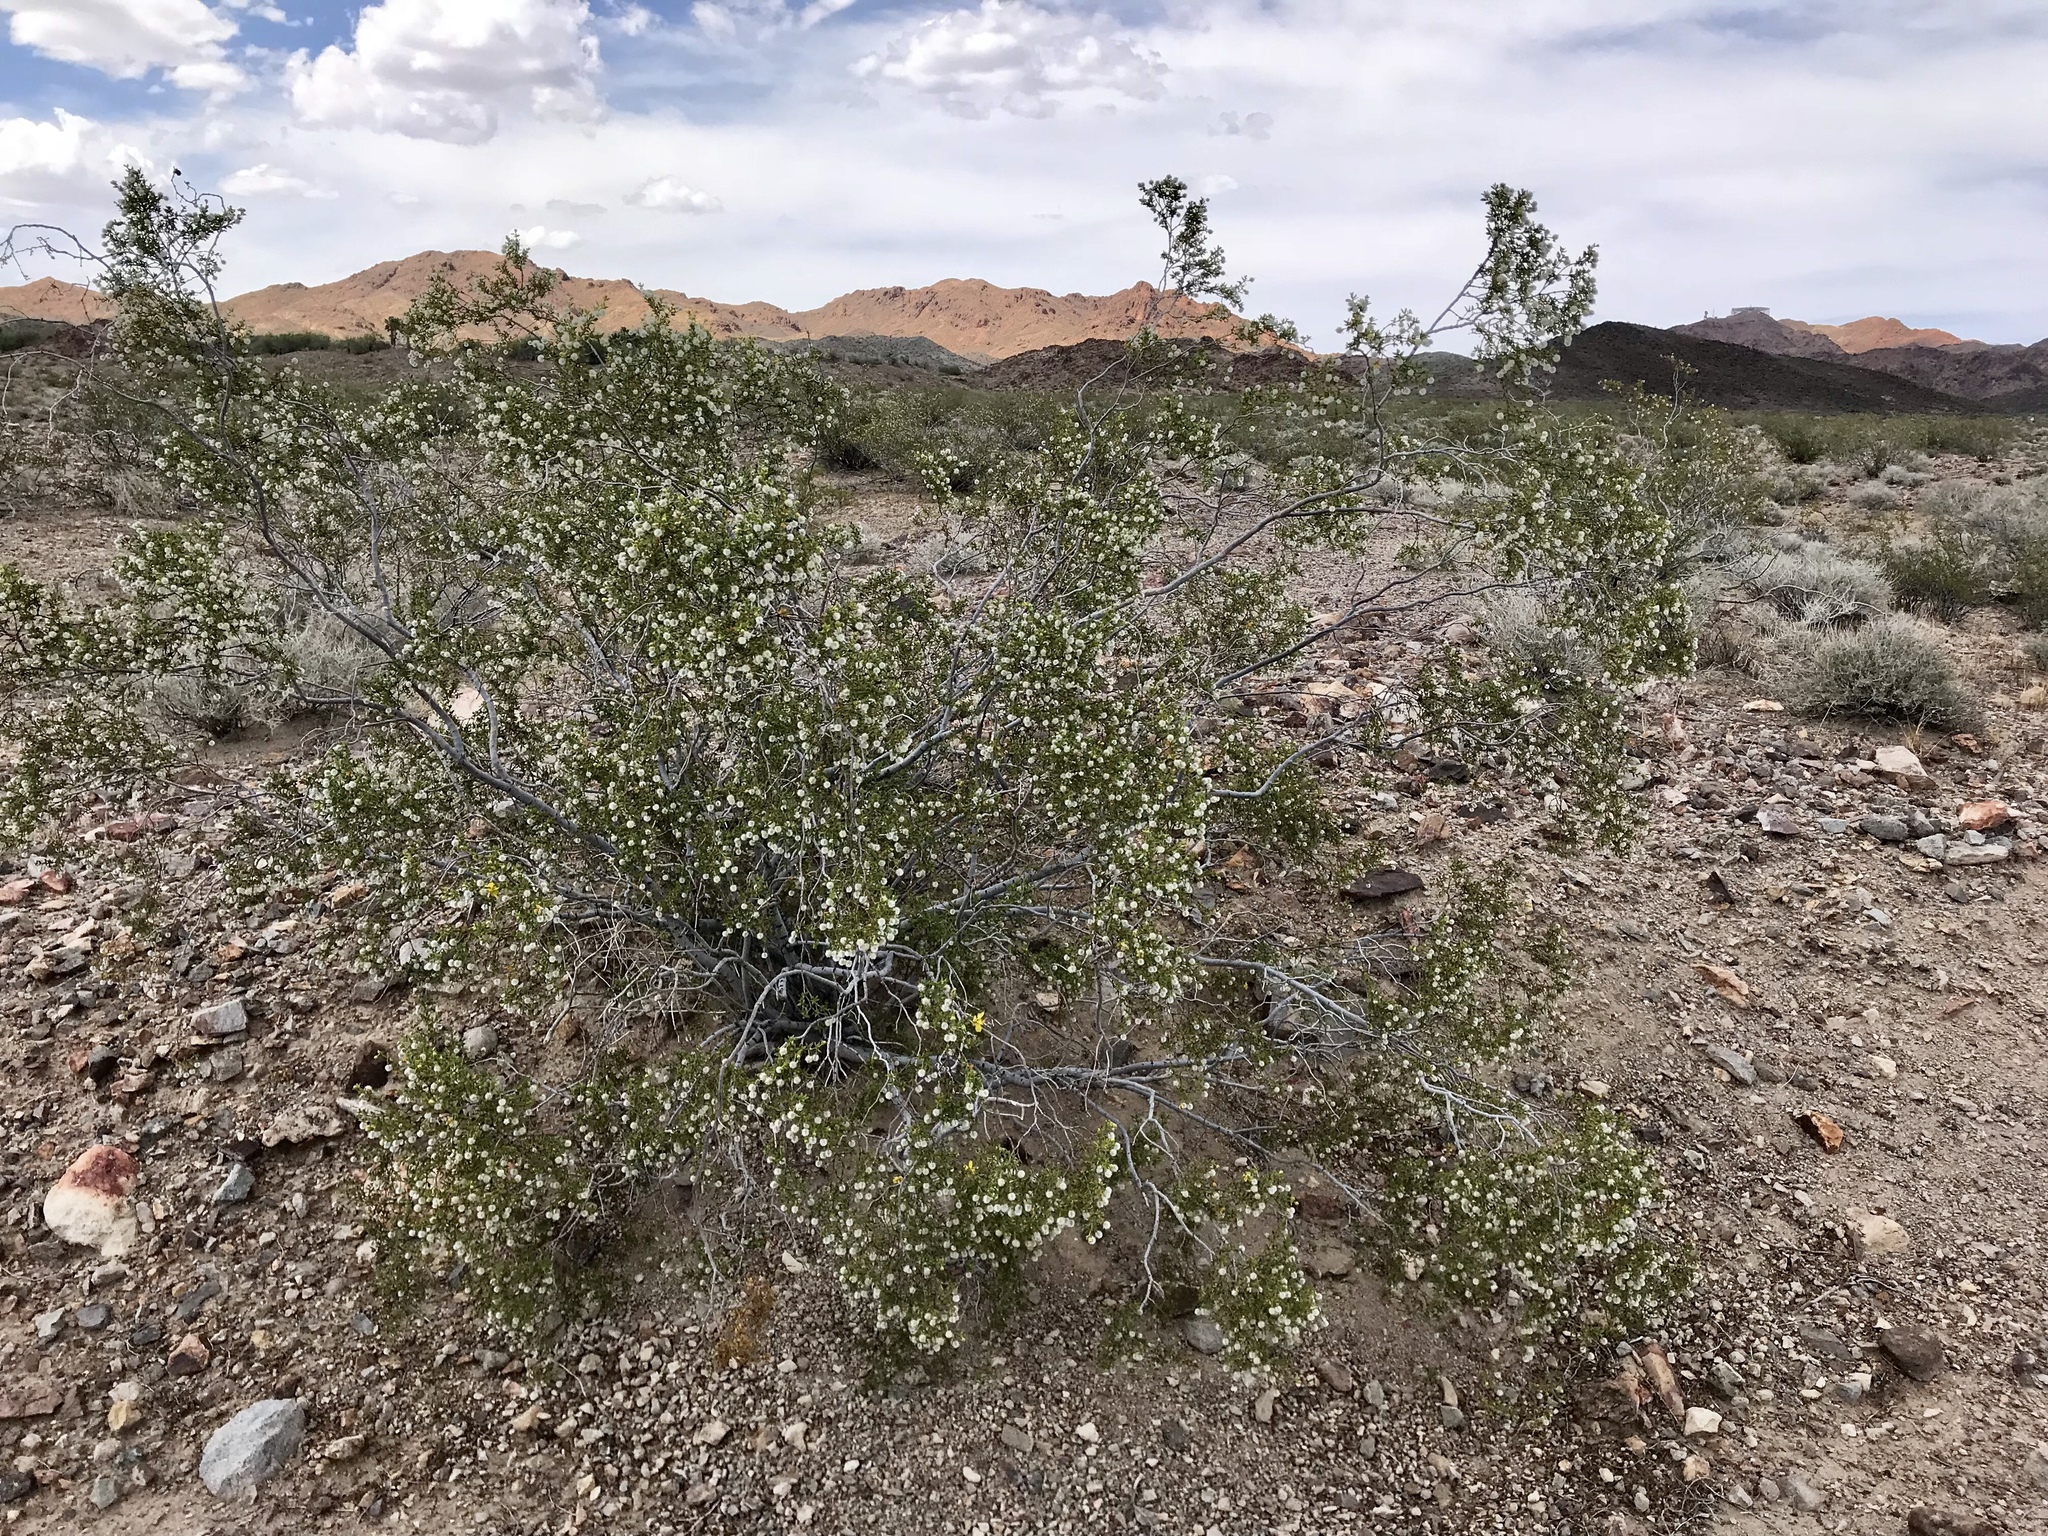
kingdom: Plantae
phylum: Tracheophyta
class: Magnoliopsida
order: Zygophyllales
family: Zygophyllaceae
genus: Larrea
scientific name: Larrea tridentata
